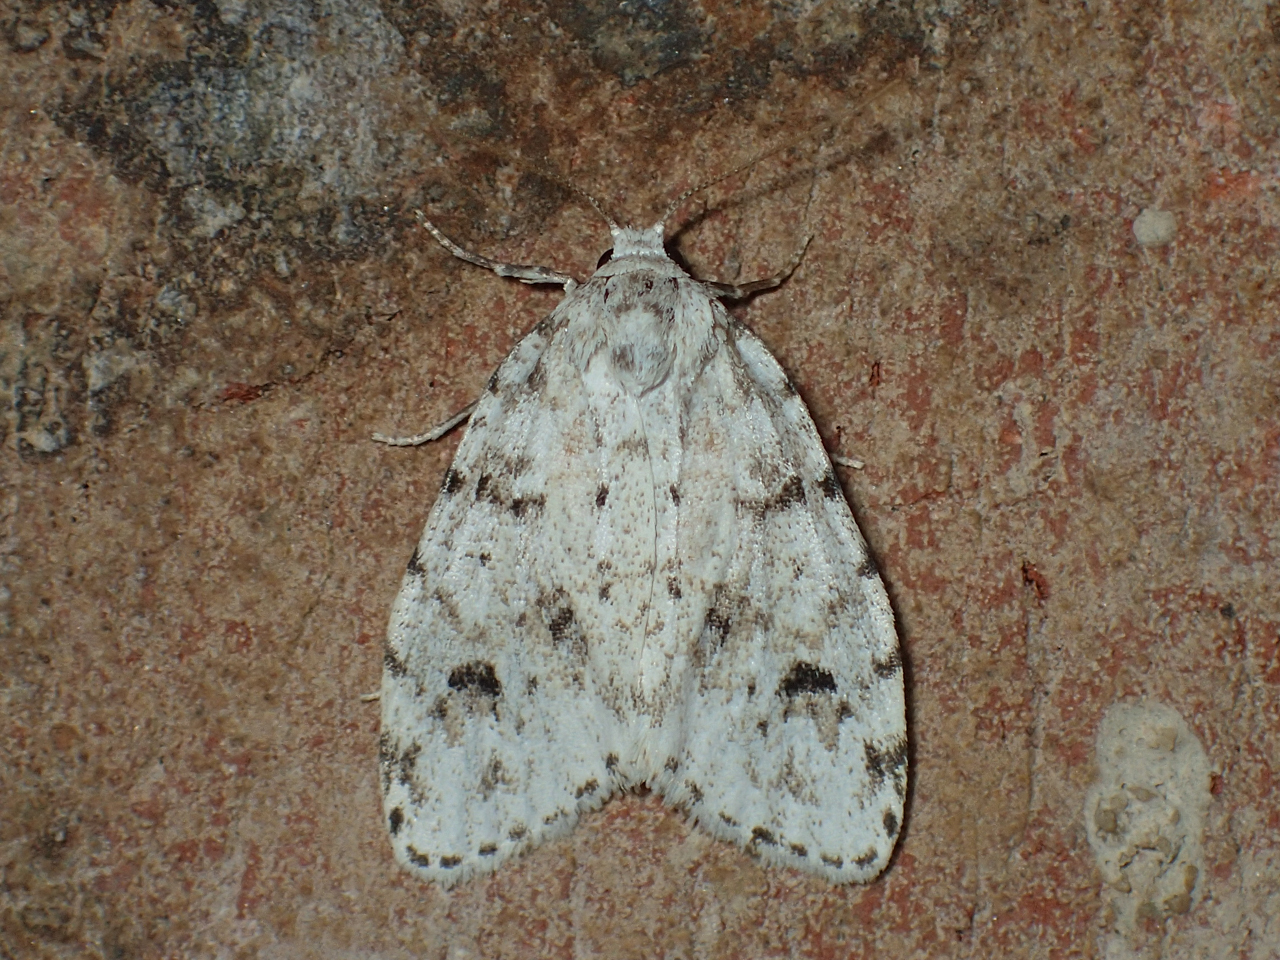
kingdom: Animalia
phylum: Arthropoda
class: Insecta
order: Lepidoptera
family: Erebidae
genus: Clemensia
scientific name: Clemensia albata
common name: Little white lichen moth
